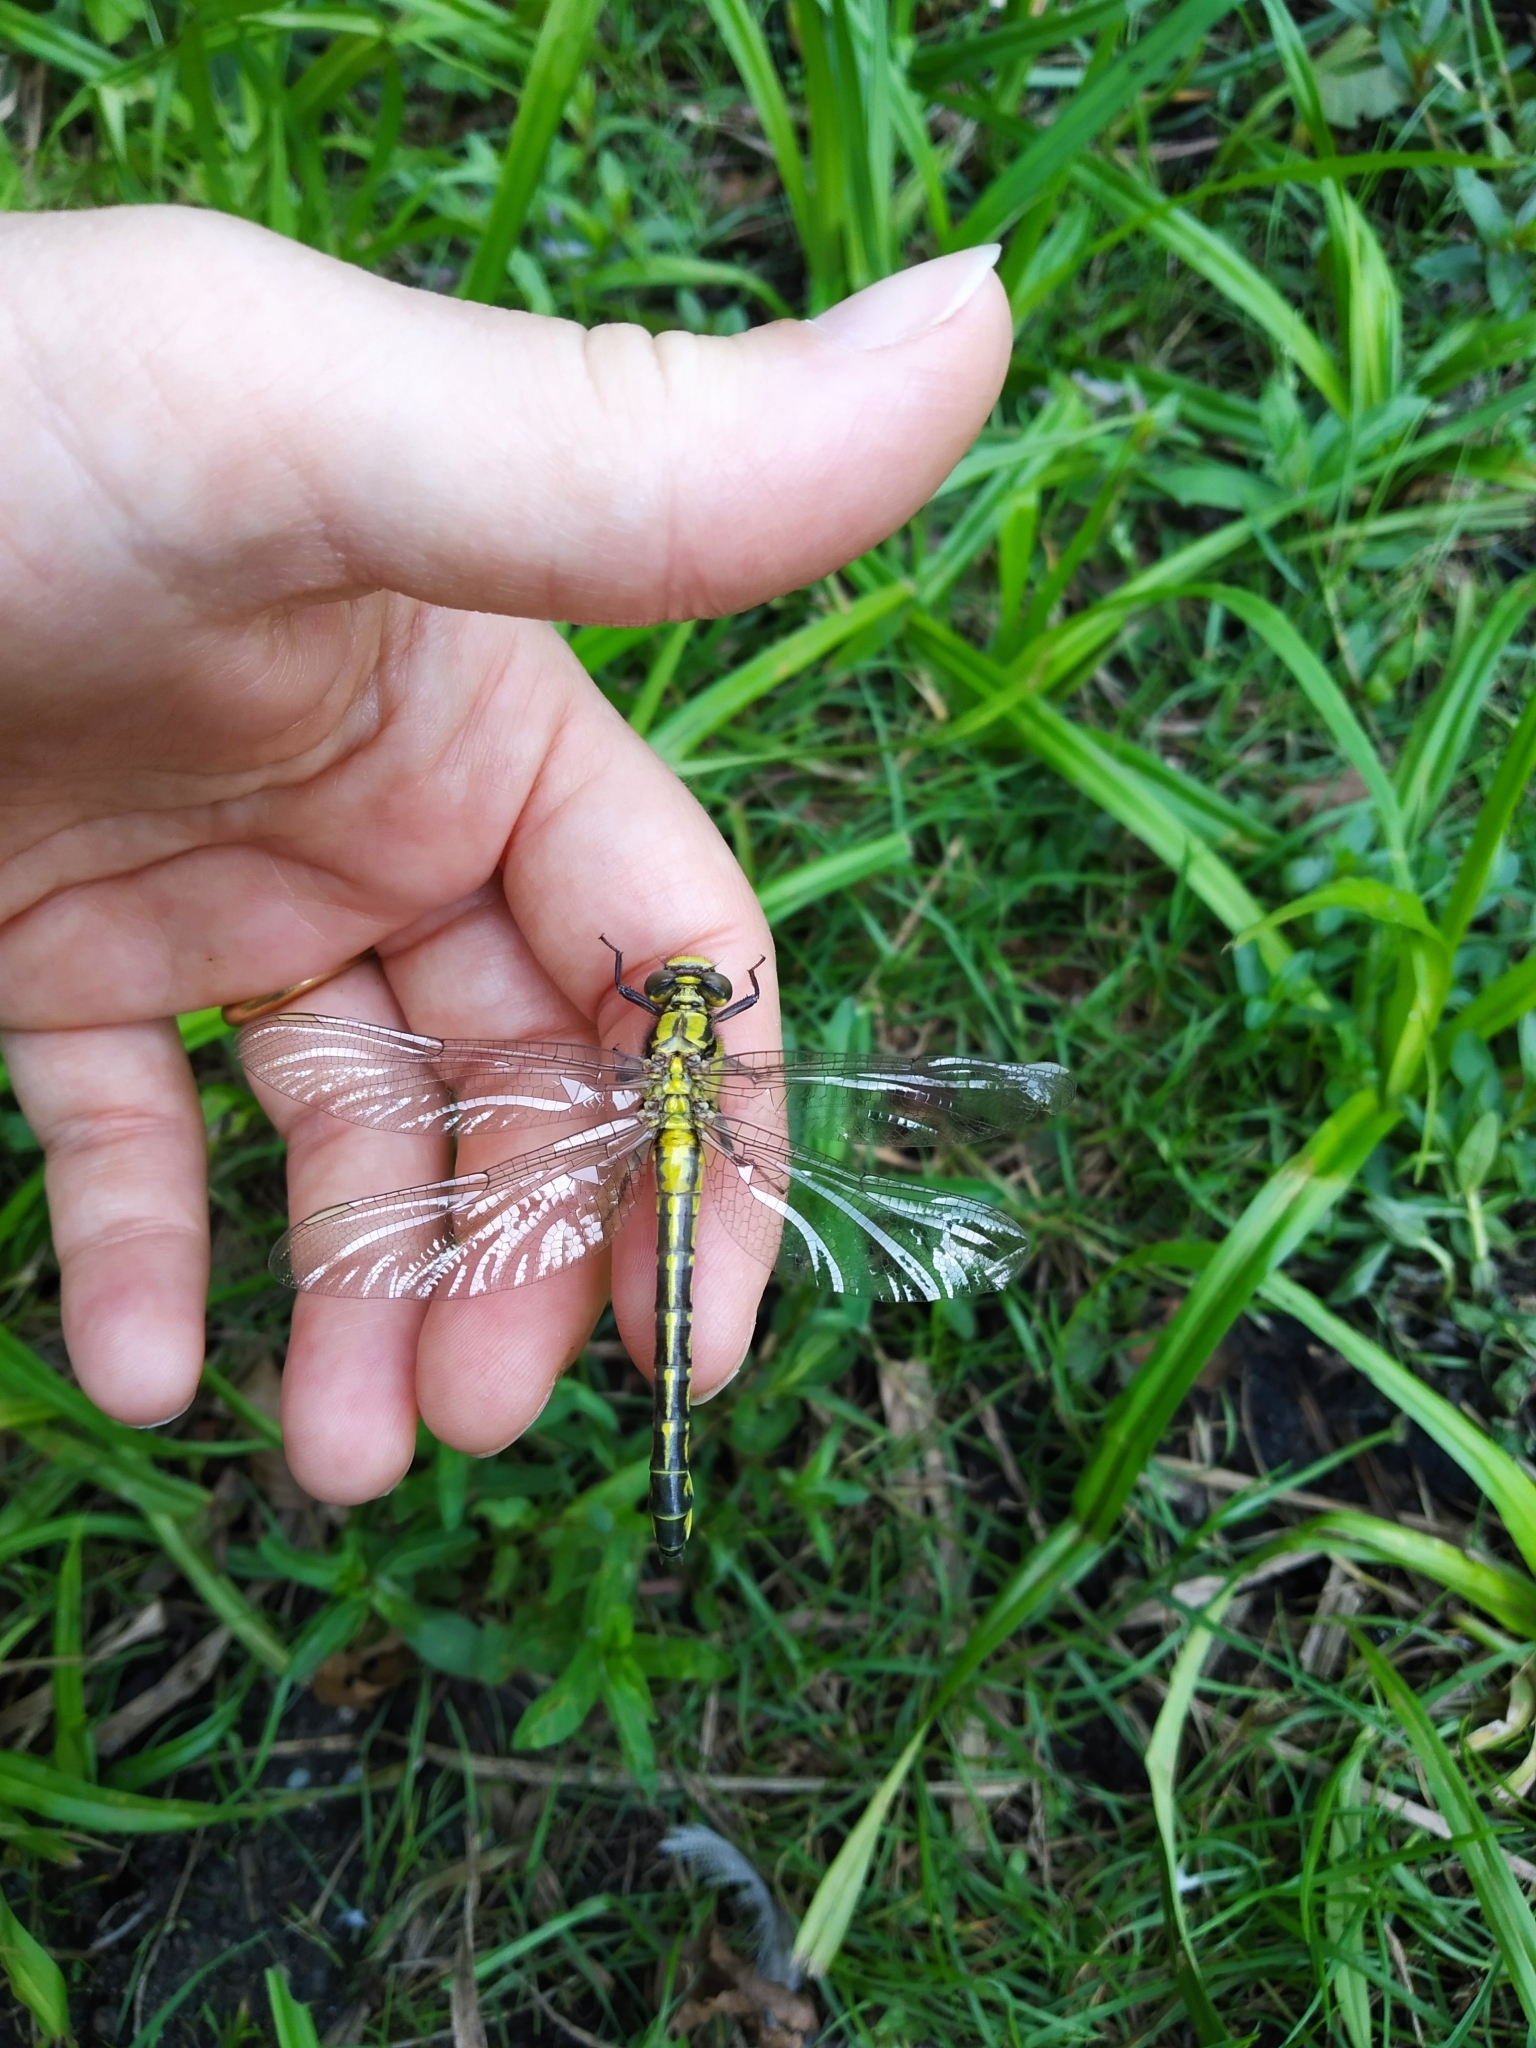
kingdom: Animalia
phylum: Arthropoda
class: Insecta
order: Odonata
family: Gomphidae
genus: Gomphus
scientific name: Gomphus vulgatissimus
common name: Club-tailed dragonfly
